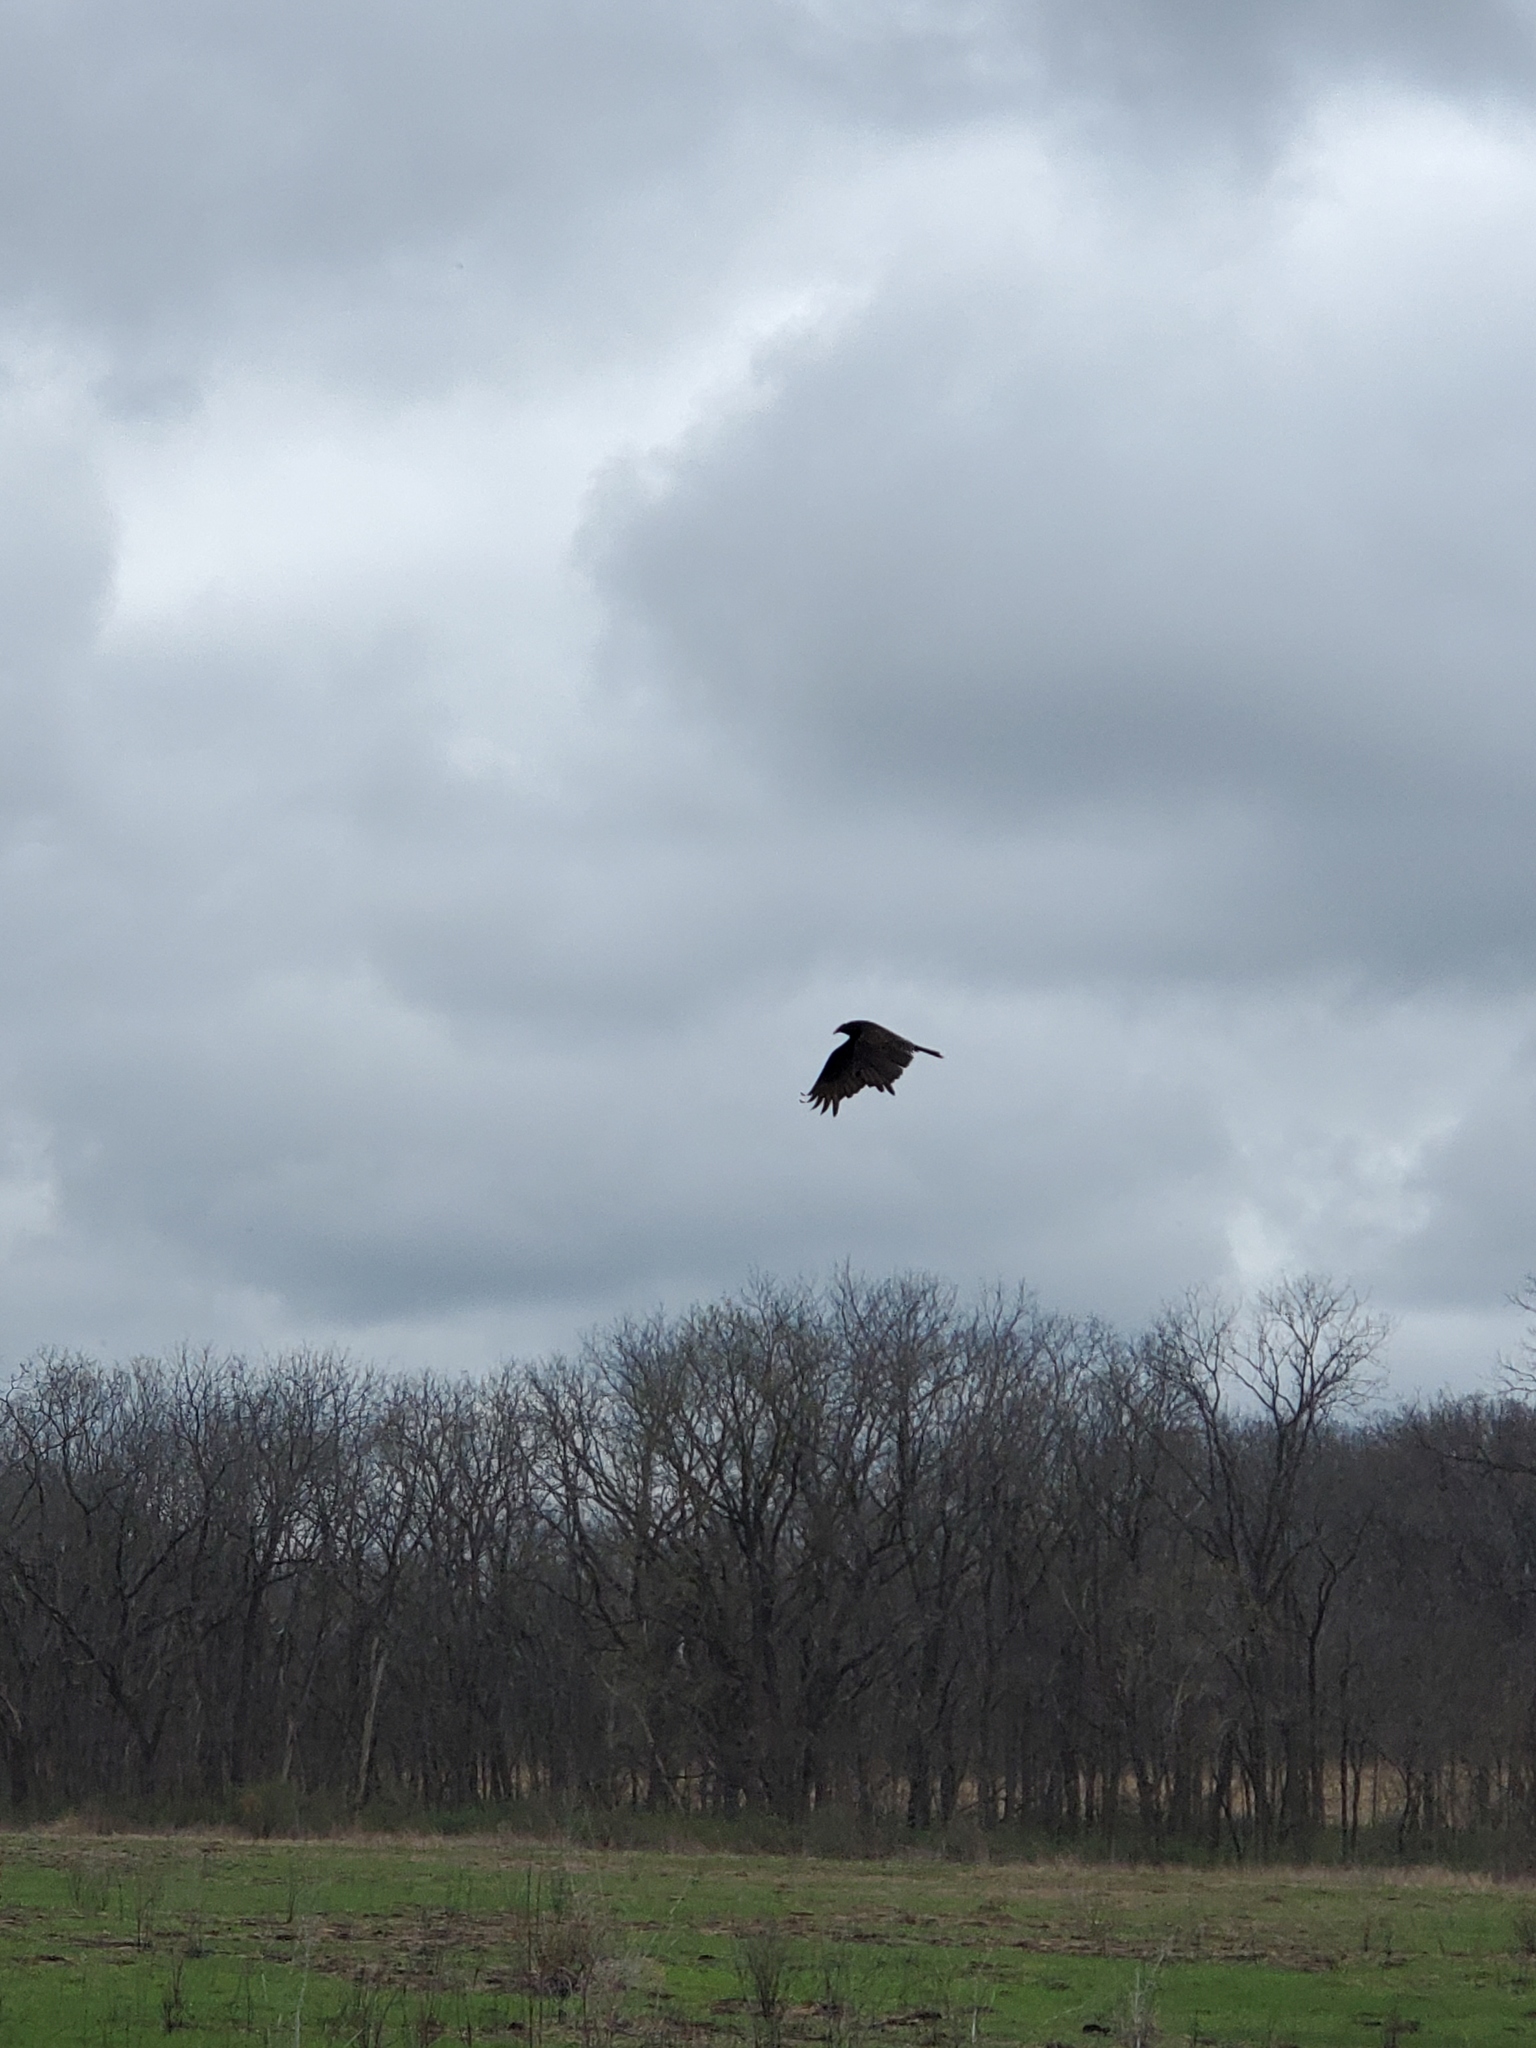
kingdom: Animalia
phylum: Chordata
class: Aves
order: Accipitriformes
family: Cathartidae
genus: Cathartes
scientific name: Cathartes aura
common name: Turkey vulture
